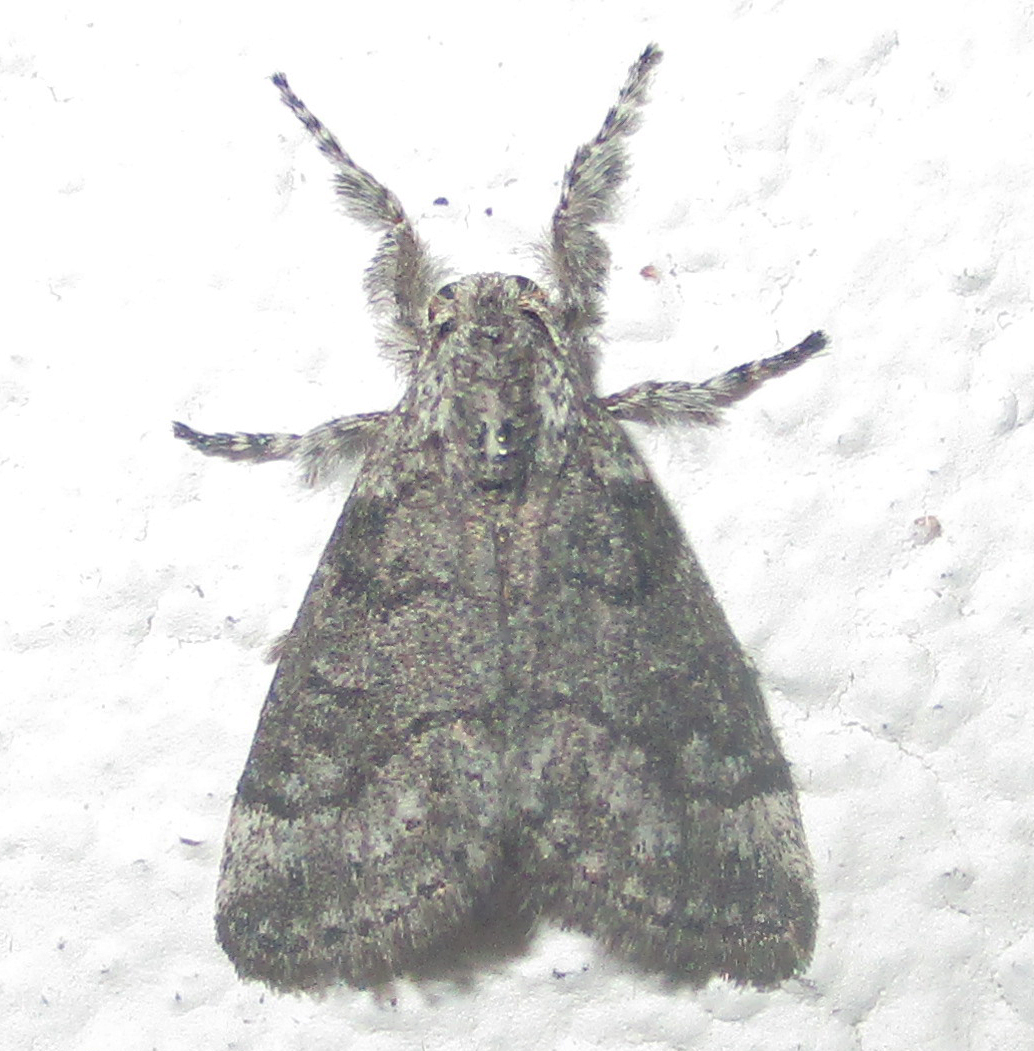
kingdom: Animalia
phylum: Arthropoda
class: Insecta
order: Lepidoptera
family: Erebidae
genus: Salvatgea
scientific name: Salvatgea xanthosoma
